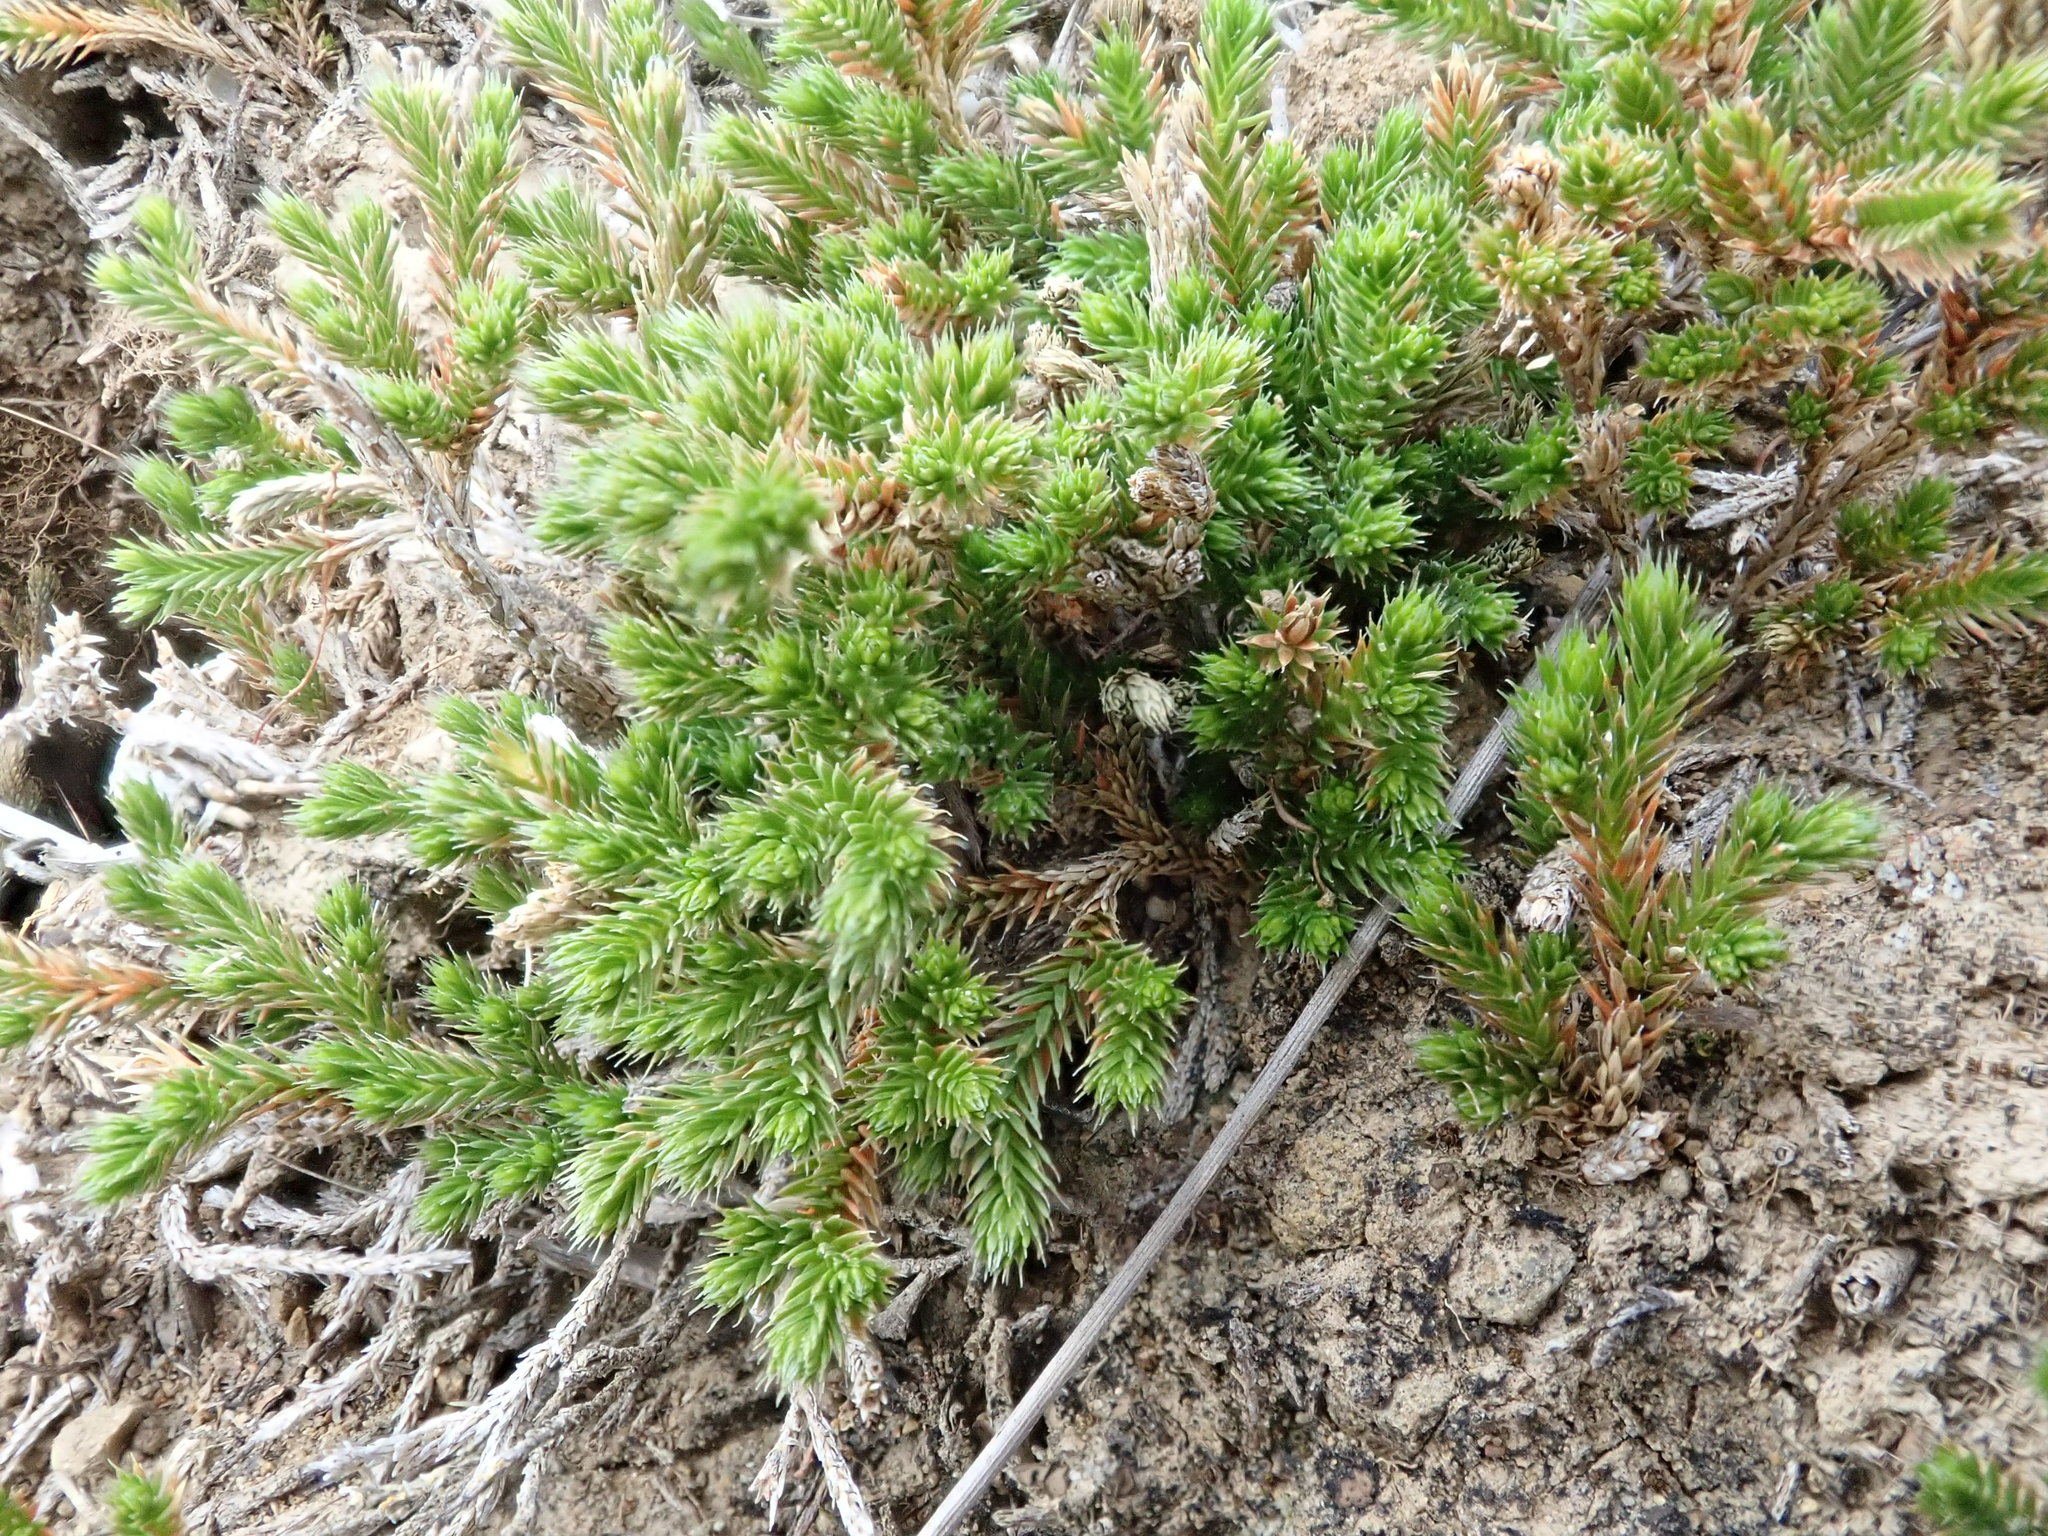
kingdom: Plantae
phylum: Tracheophyta
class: Lycopodiopsida
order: Selaginellales
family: Selaginellaceae
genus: Selaginella
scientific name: Selaginella bigelovii
